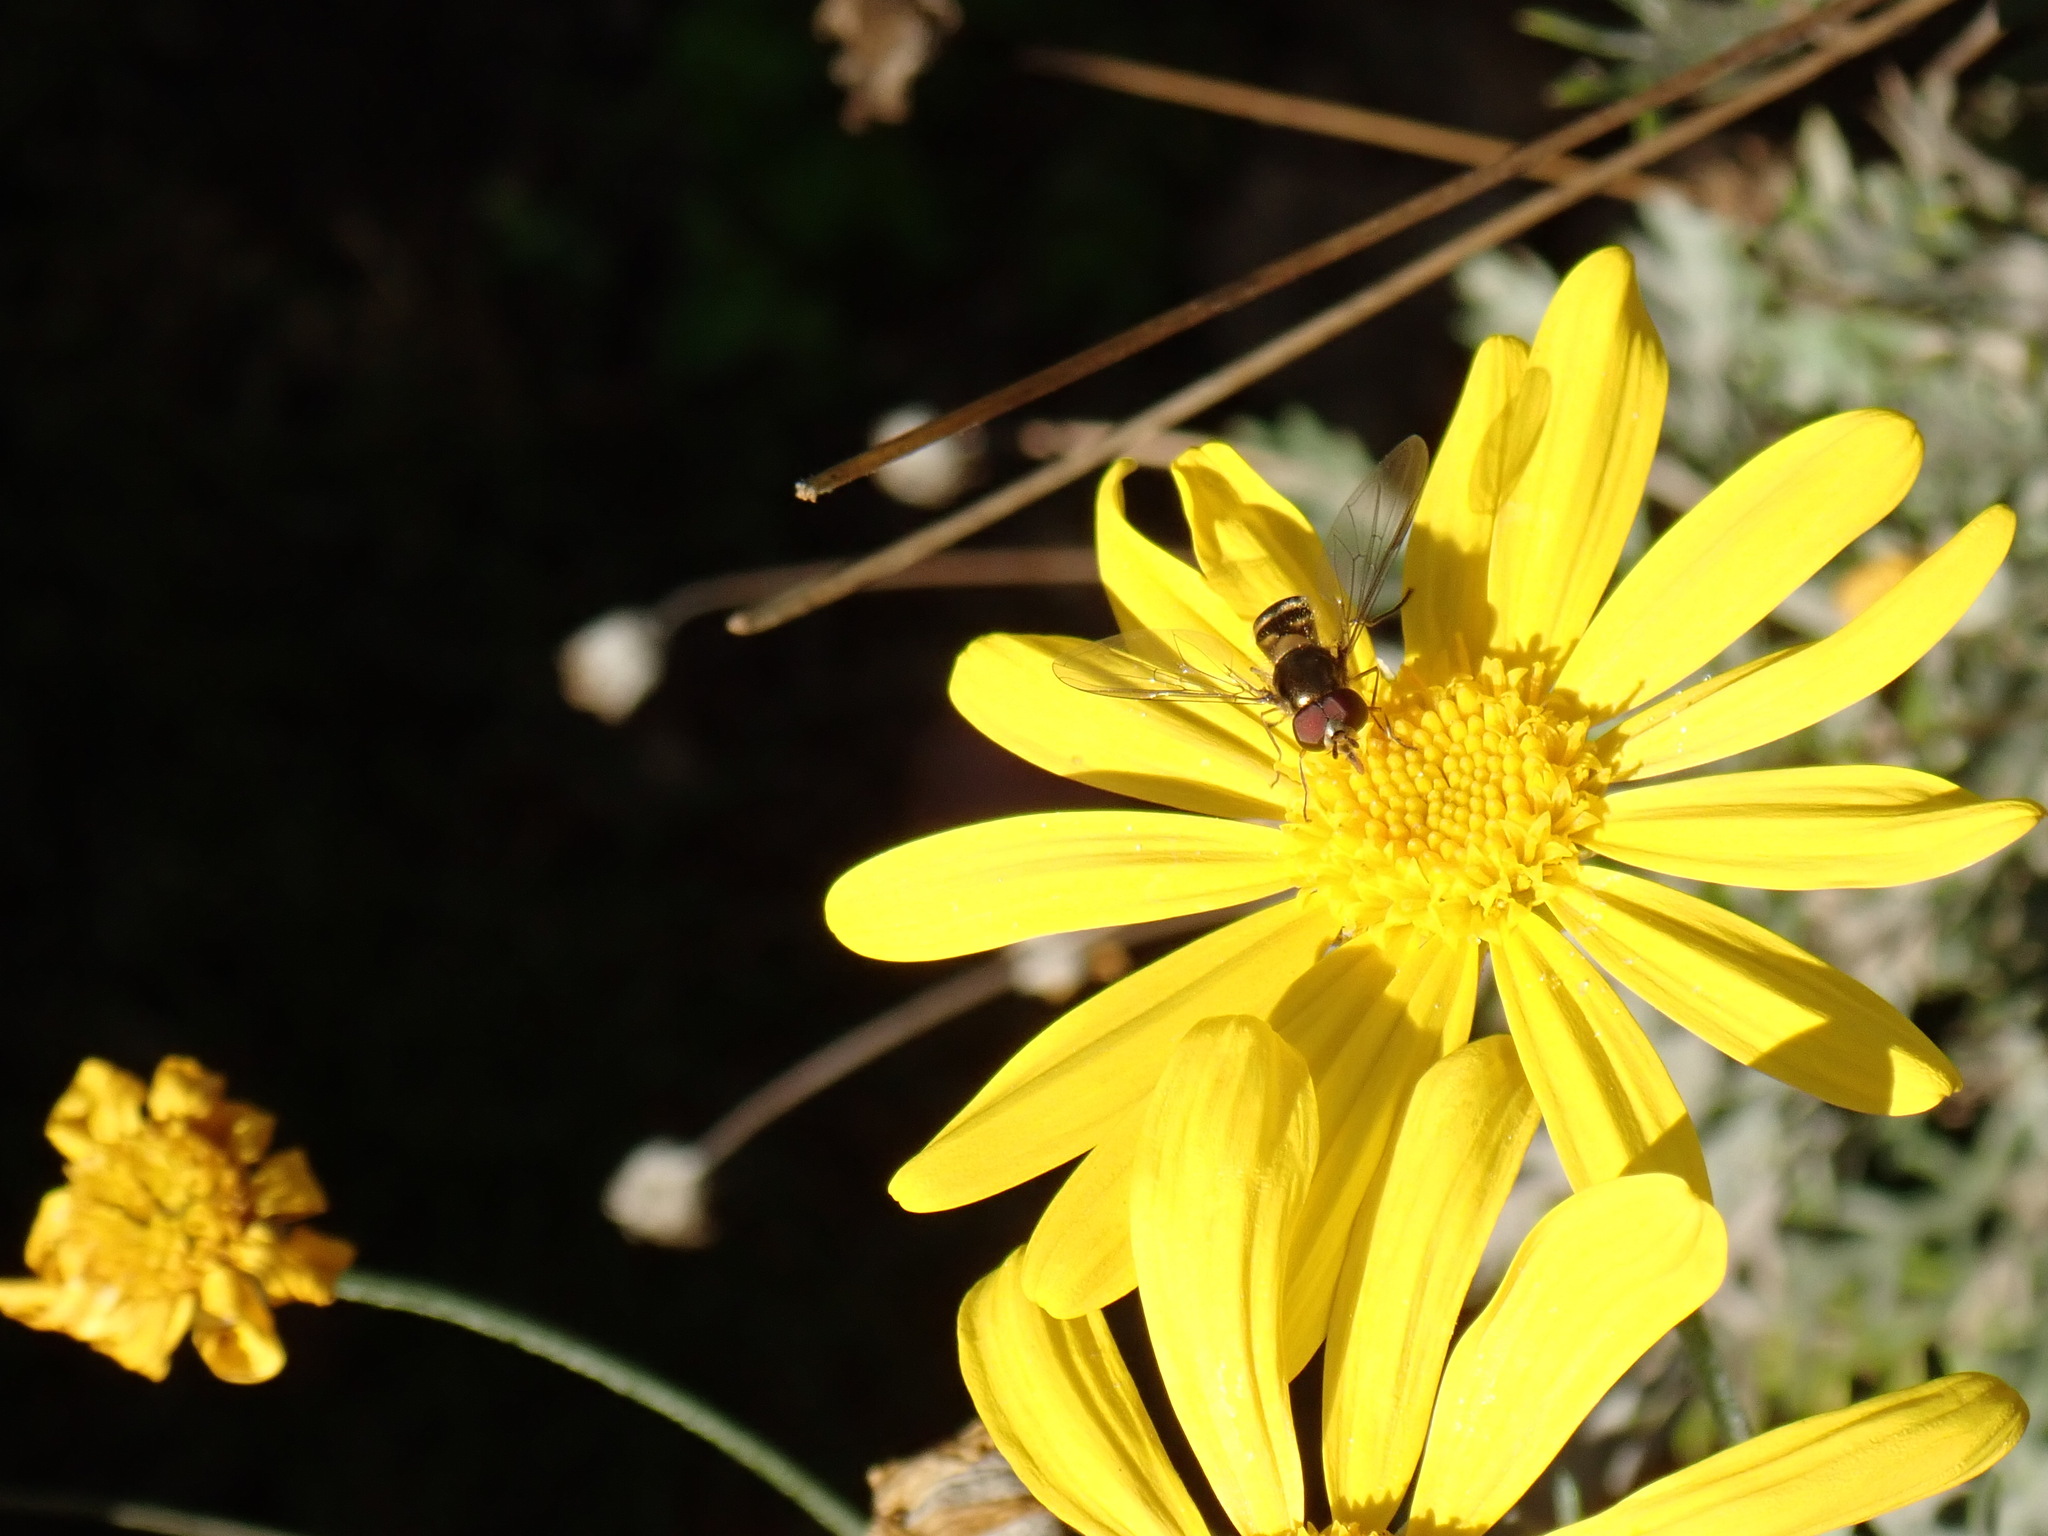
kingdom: Animalia
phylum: Arthropoda
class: Insecta
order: Diptera
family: Syrphidae
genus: Meliscaeva
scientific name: Meliscaeva auricollis
